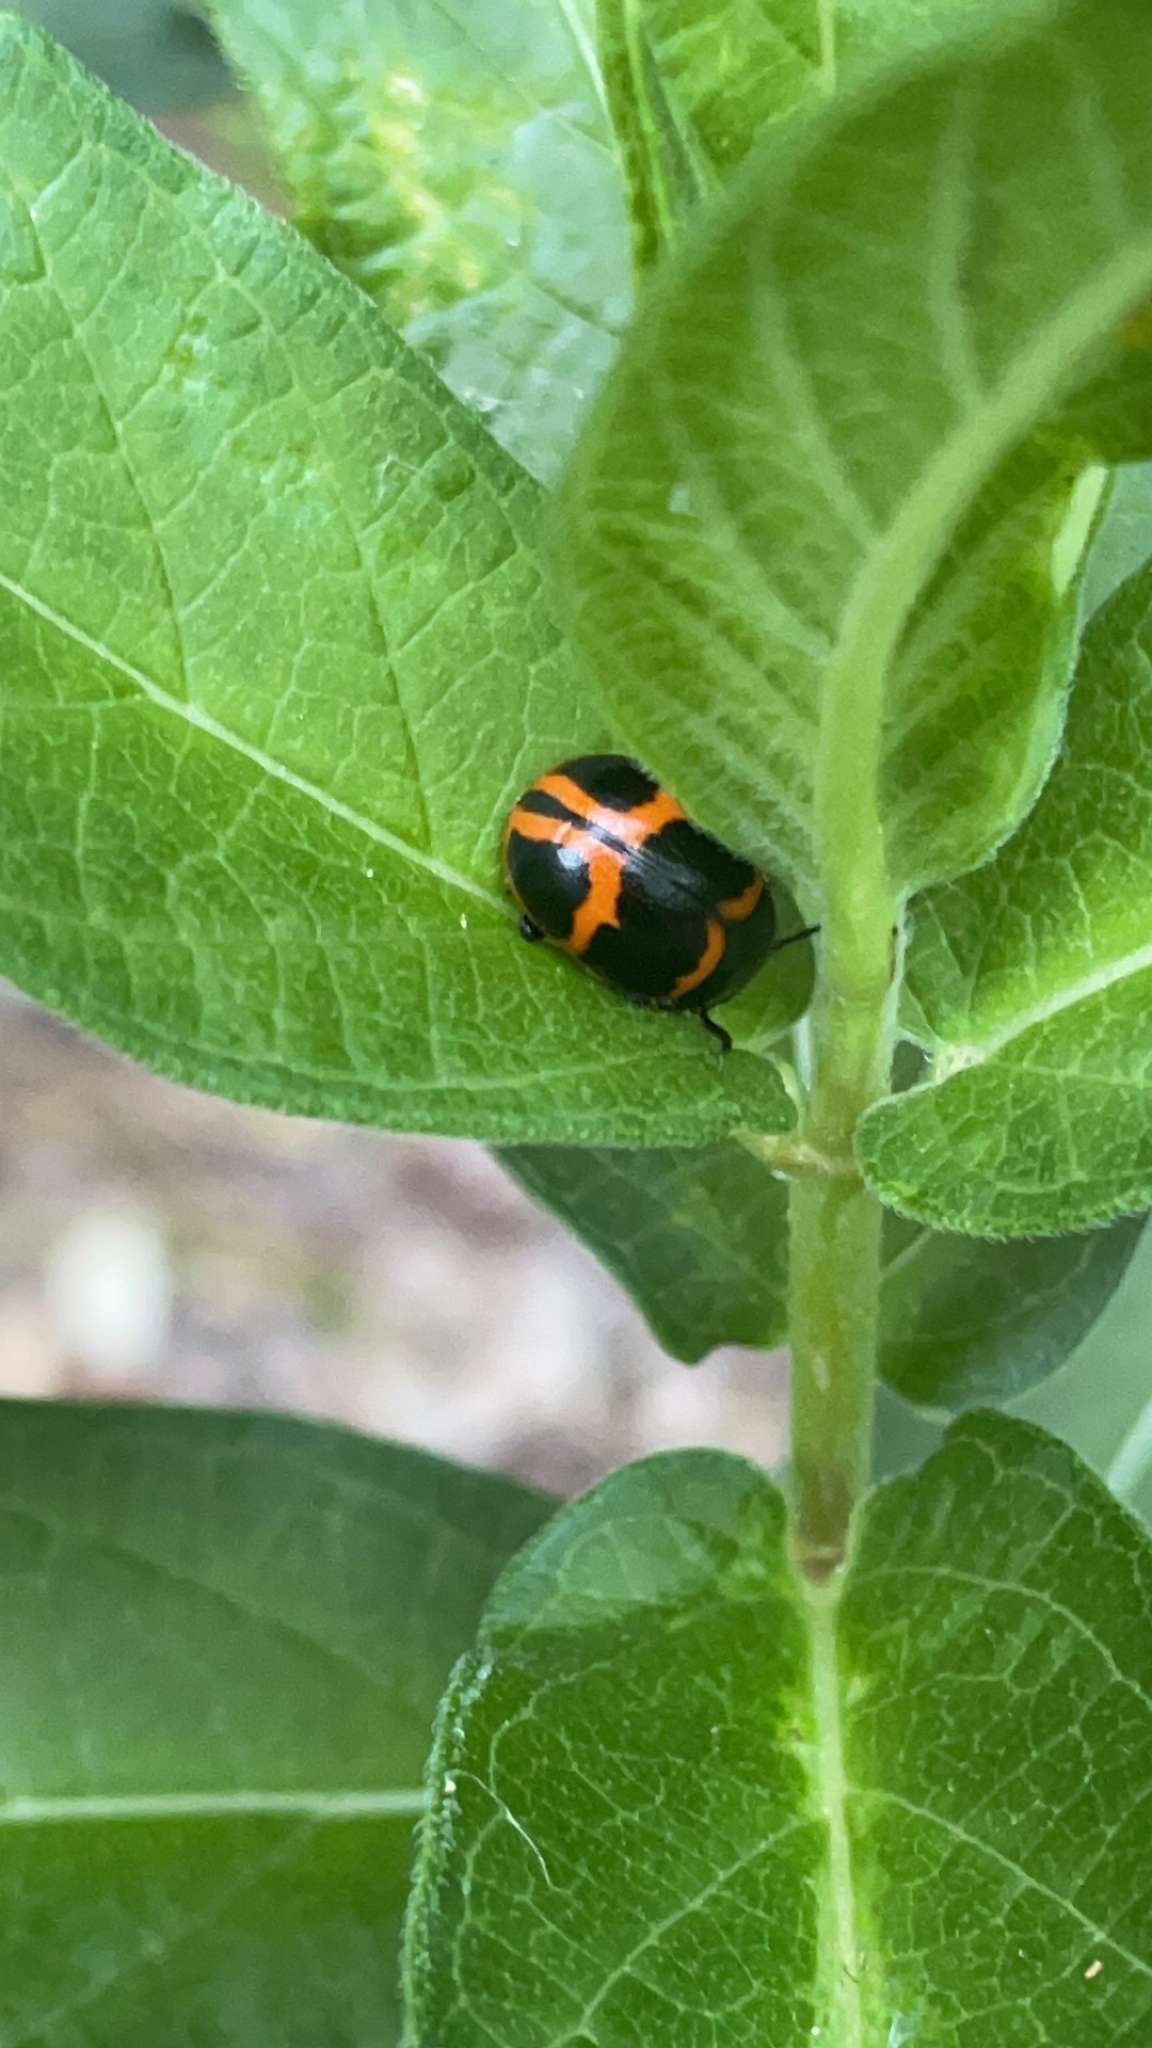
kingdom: Animalia
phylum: Arthropoda
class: Insecta
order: Coleoptera
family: Chrysomelidae
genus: Labidomera
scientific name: Labidomera clivicollis
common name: Swamp milkweed leaf beetle
